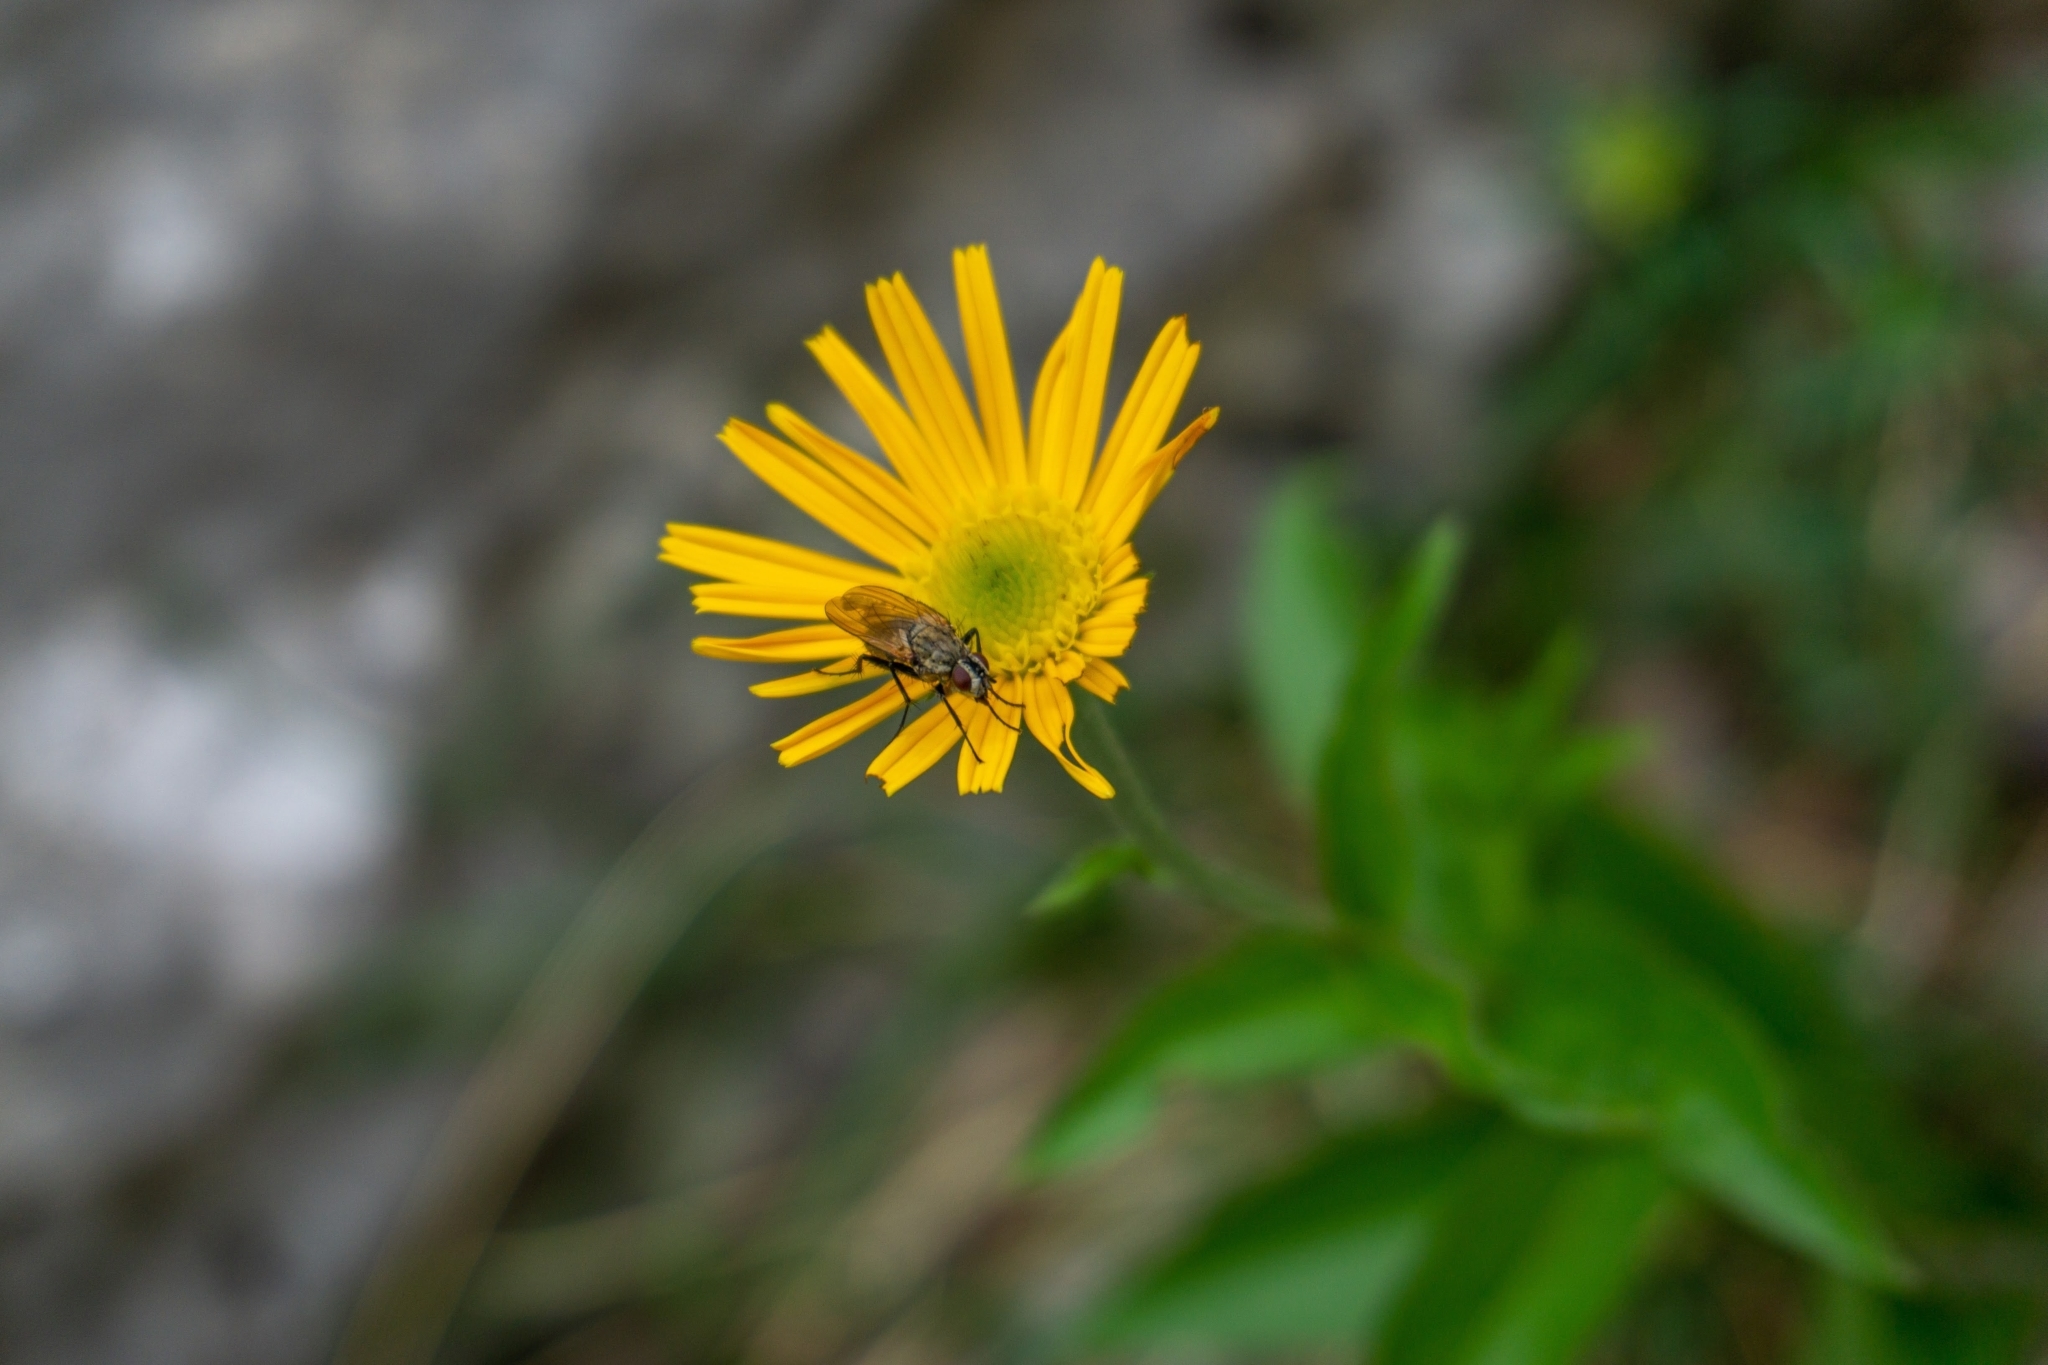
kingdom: Plantae
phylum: Tracheophyta
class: Magnoliopsida
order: Asterales
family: Asteraceae
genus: Buphthalmum
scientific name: Buphthalmum salicifolium
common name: Willow-leaved yellow-oxeye
